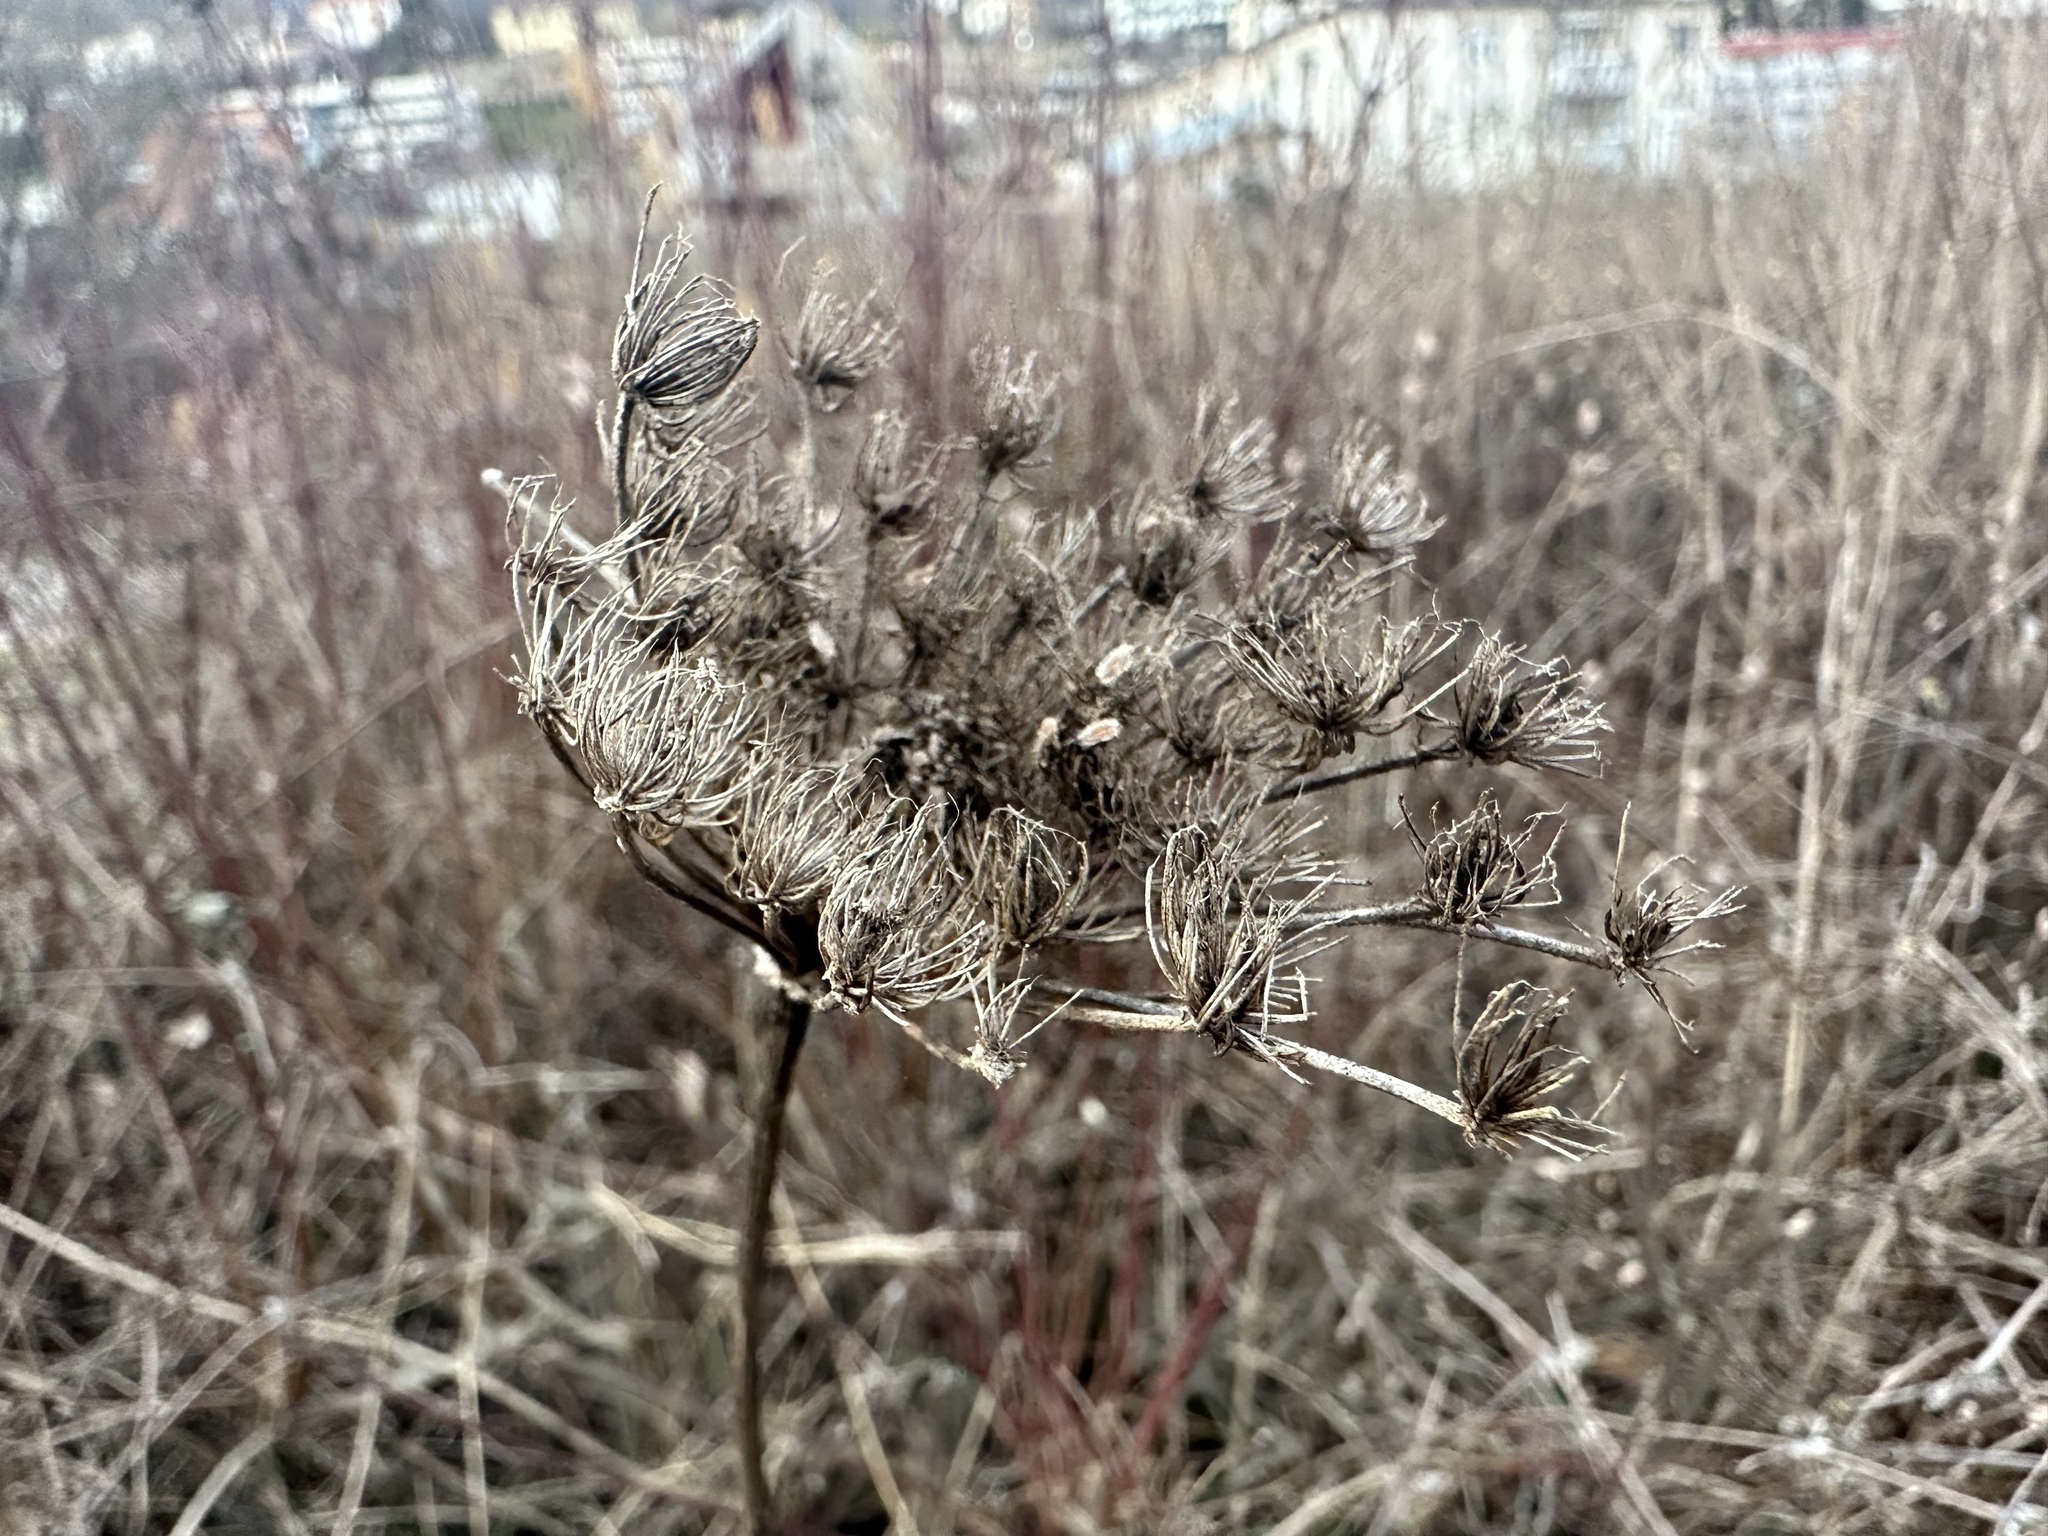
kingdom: Plantae
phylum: Tracheophyta
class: Magnoliopsida
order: Apiales
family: Apiaceae
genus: Daucus
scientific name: Daucus carota
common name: Wild carrot
